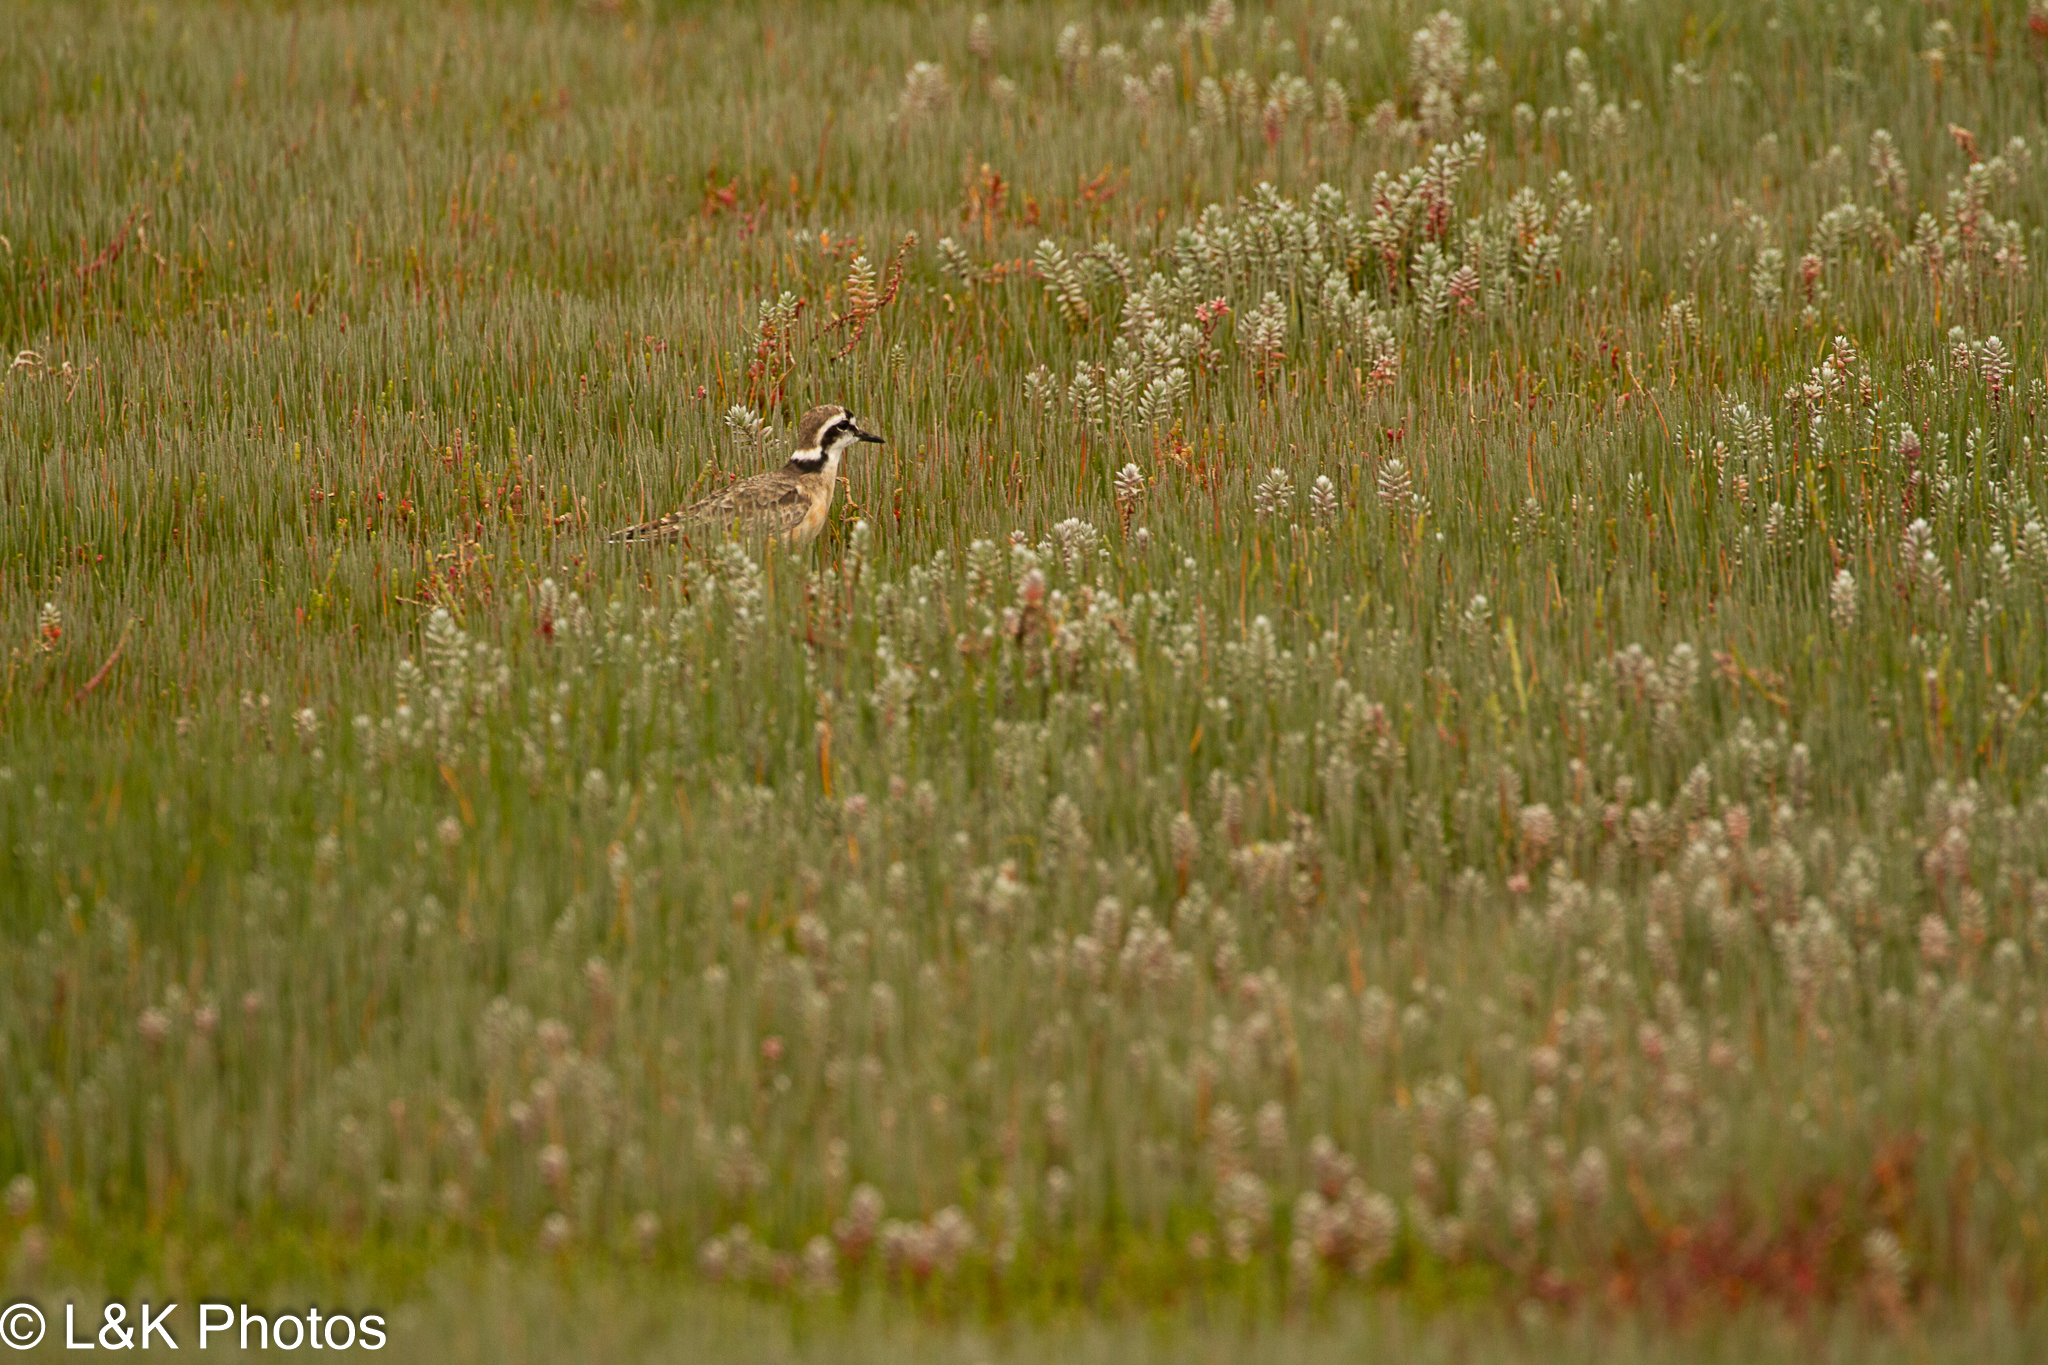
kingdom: Animalia
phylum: Chordata
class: Aves
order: Charadriiformes
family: Charadriidae
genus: Anarhynchus
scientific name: Anarhynchus
